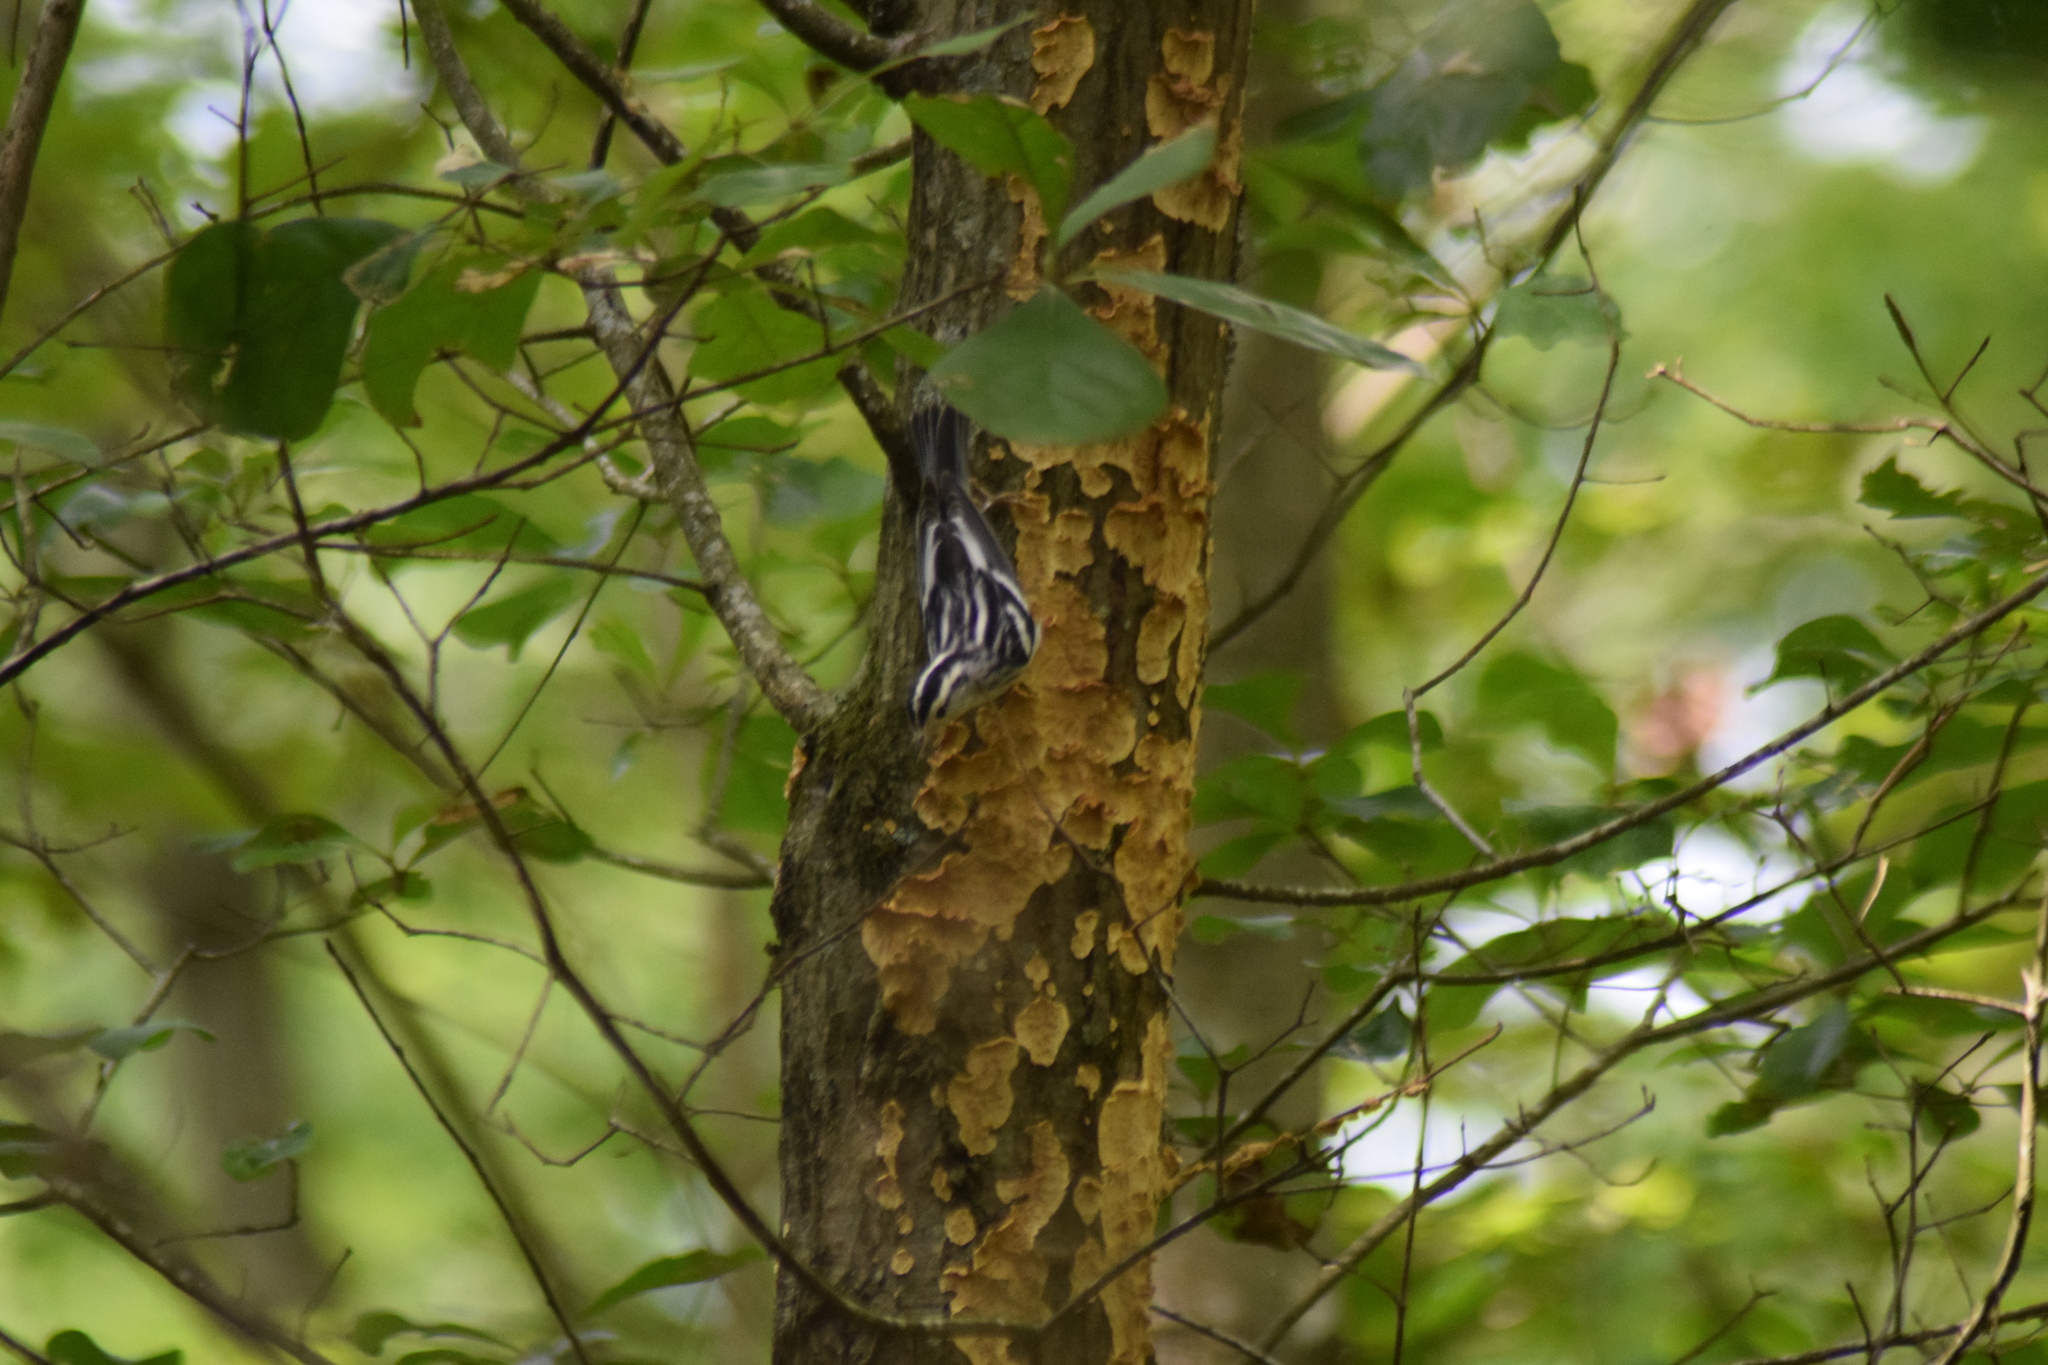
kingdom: Animalia
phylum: Chordata
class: Aves
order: Passeriformes
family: Parulidae
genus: Mniotilta
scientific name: Mniotilta varia
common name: Black-and-white warbler
